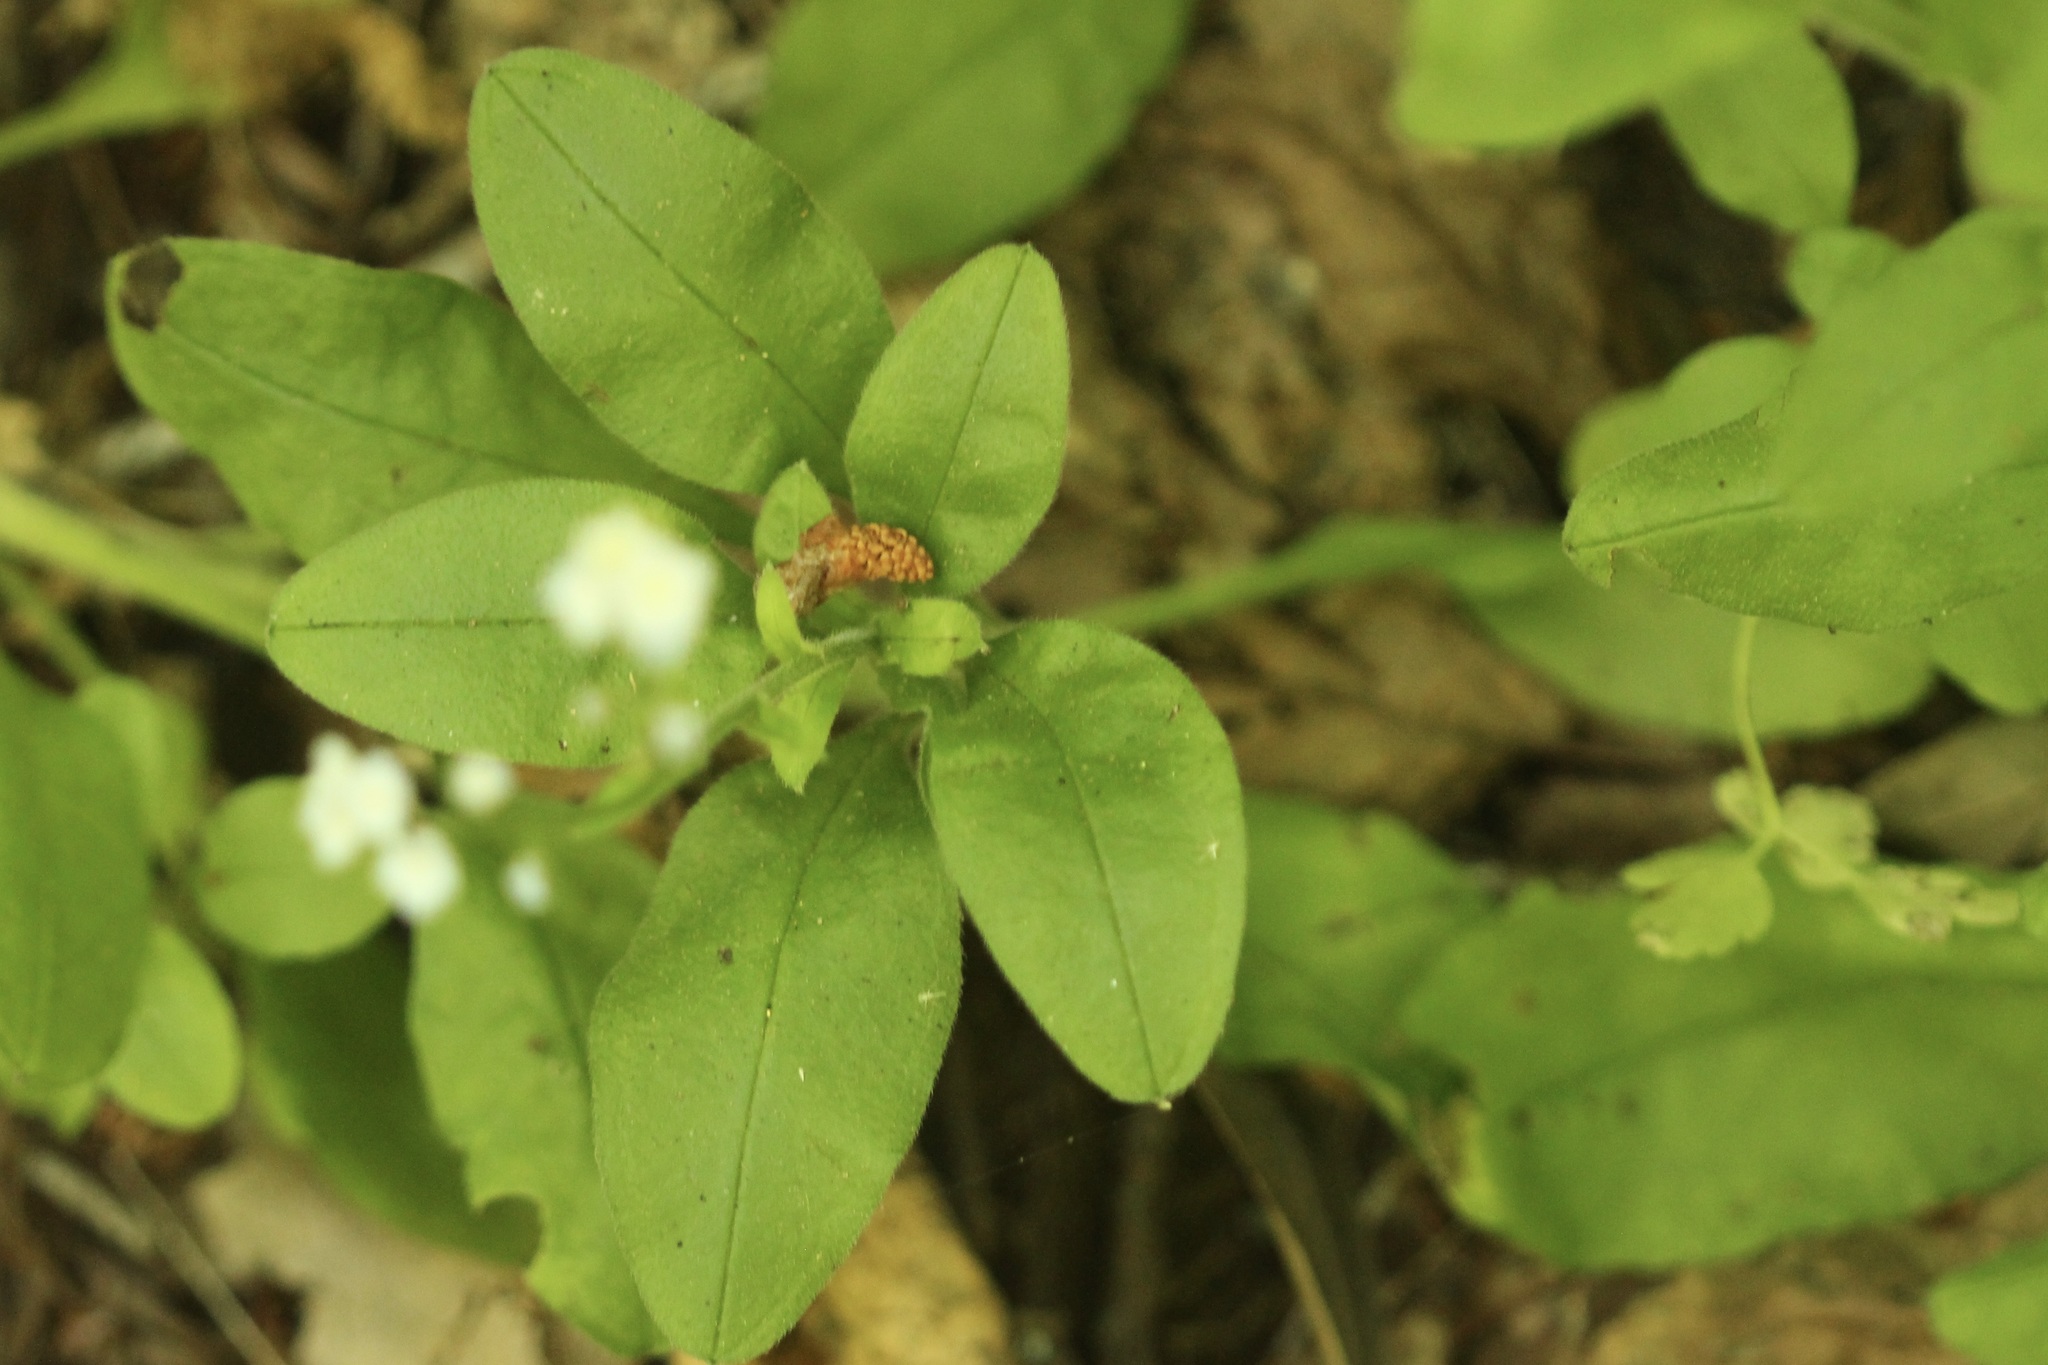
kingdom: Plantae
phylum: Tracheophyta
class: Magnoliopsida
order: Boraginales
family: Boraginaceae
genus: Myosotis
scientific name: Myosotis latifolia
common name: Broadleaf forget-me-not
